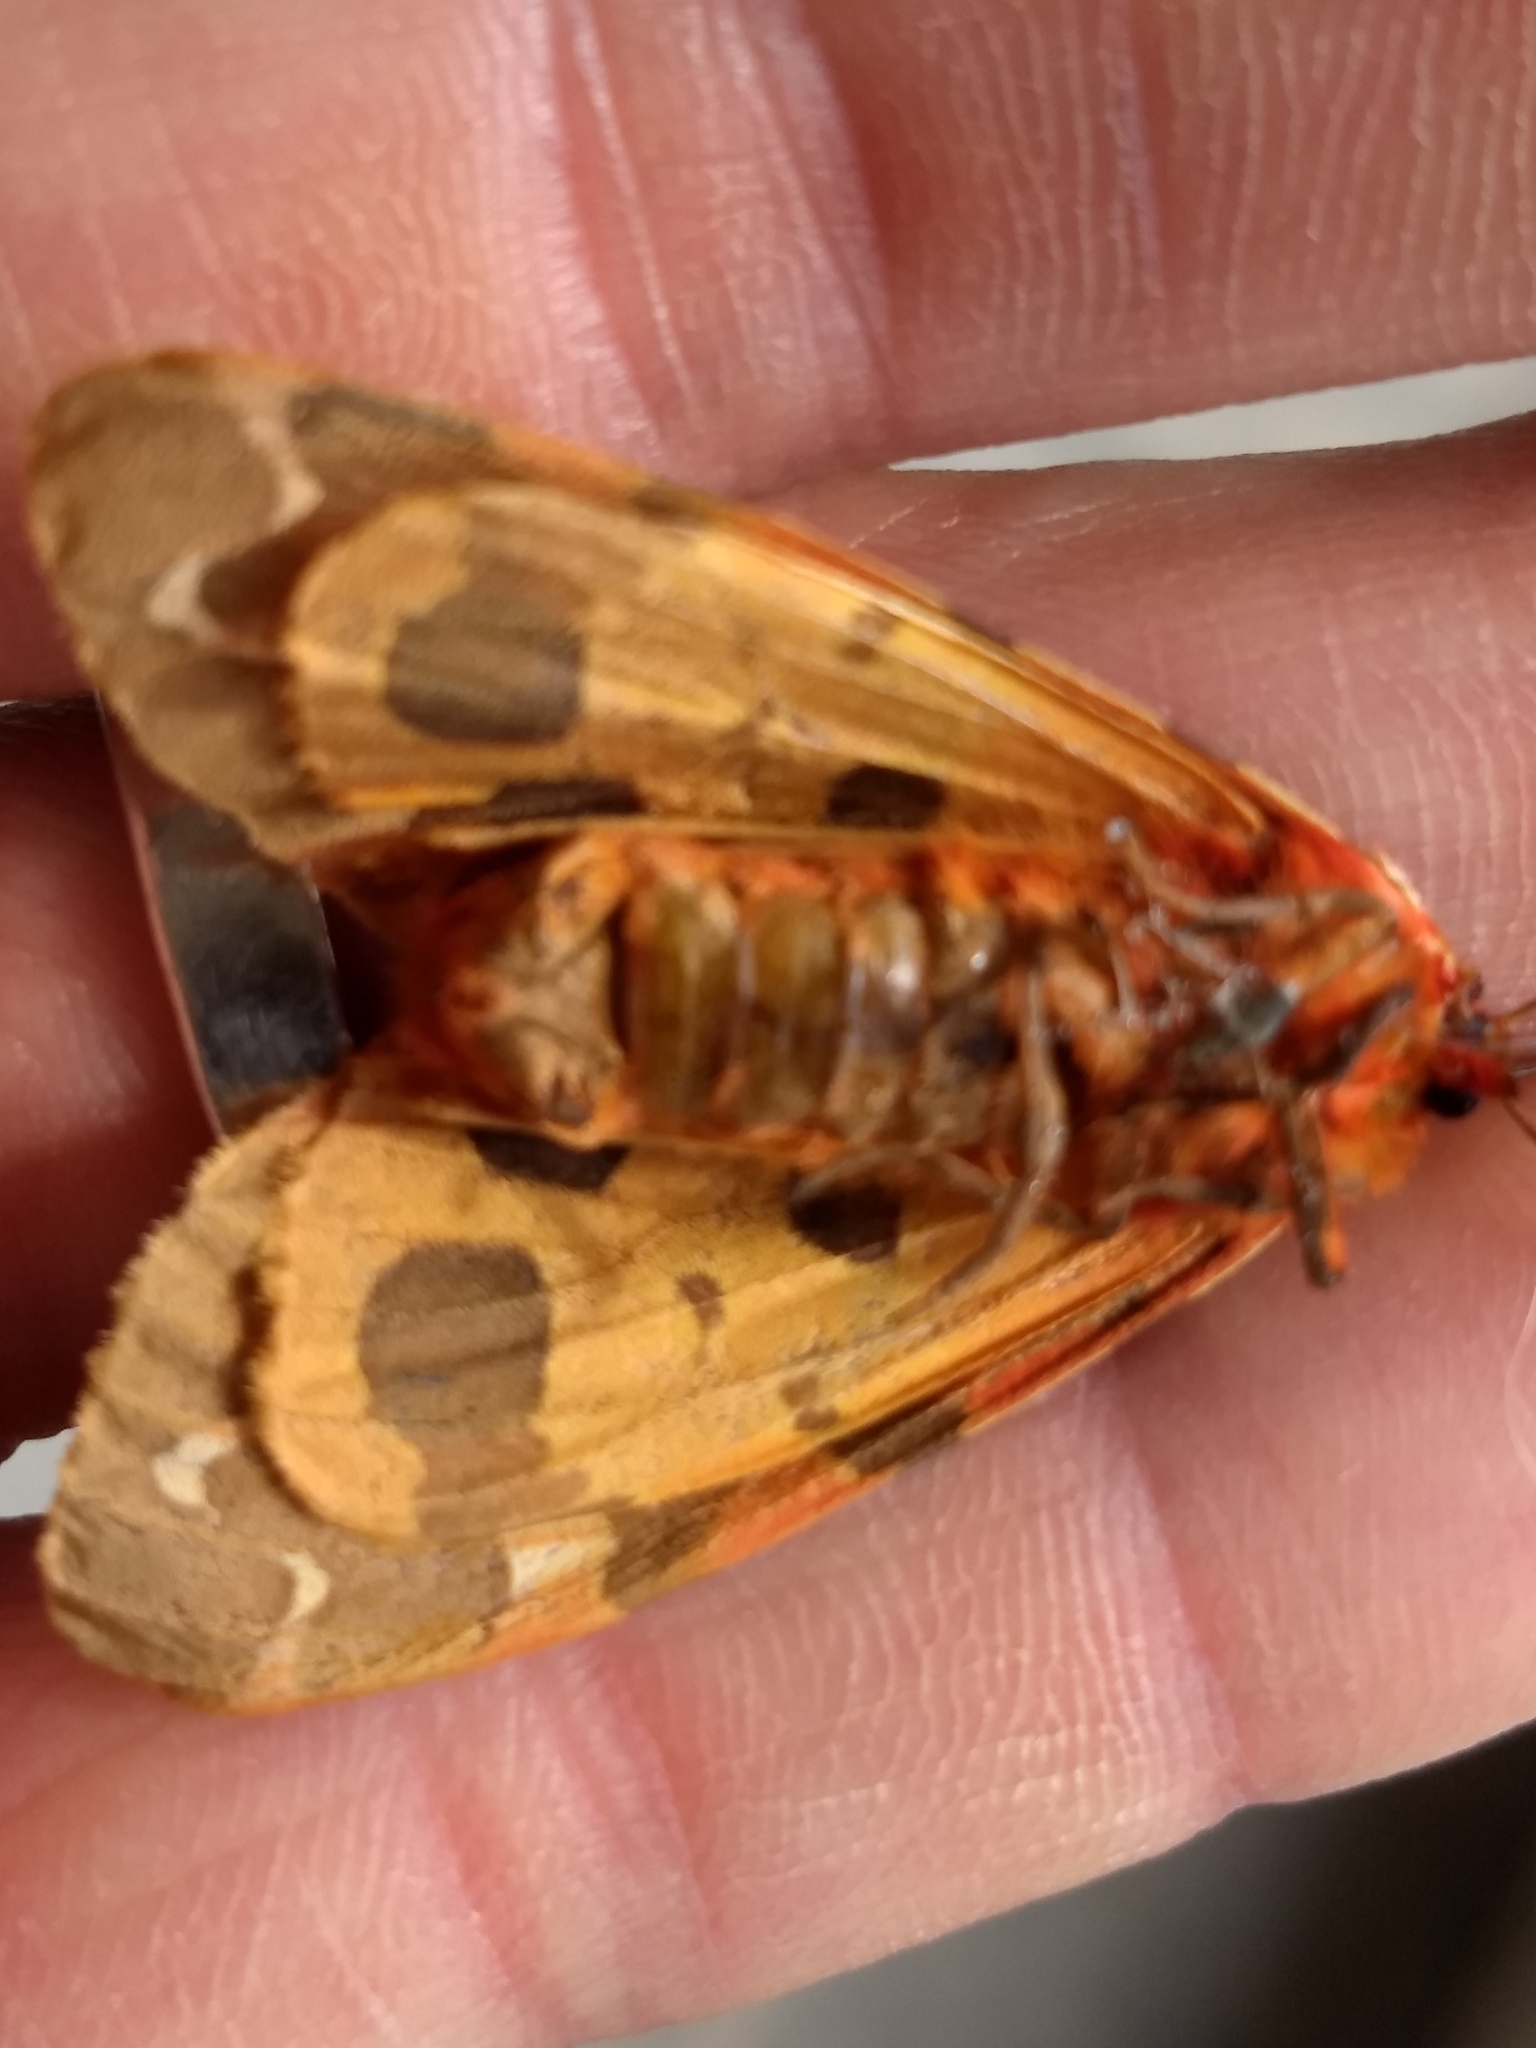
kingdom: Animalia
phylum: Arthropoda
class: Insecta
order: Lepidoptera
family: Erebidae
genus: Arctia
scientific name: Arctia caja
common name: Garden tiger
